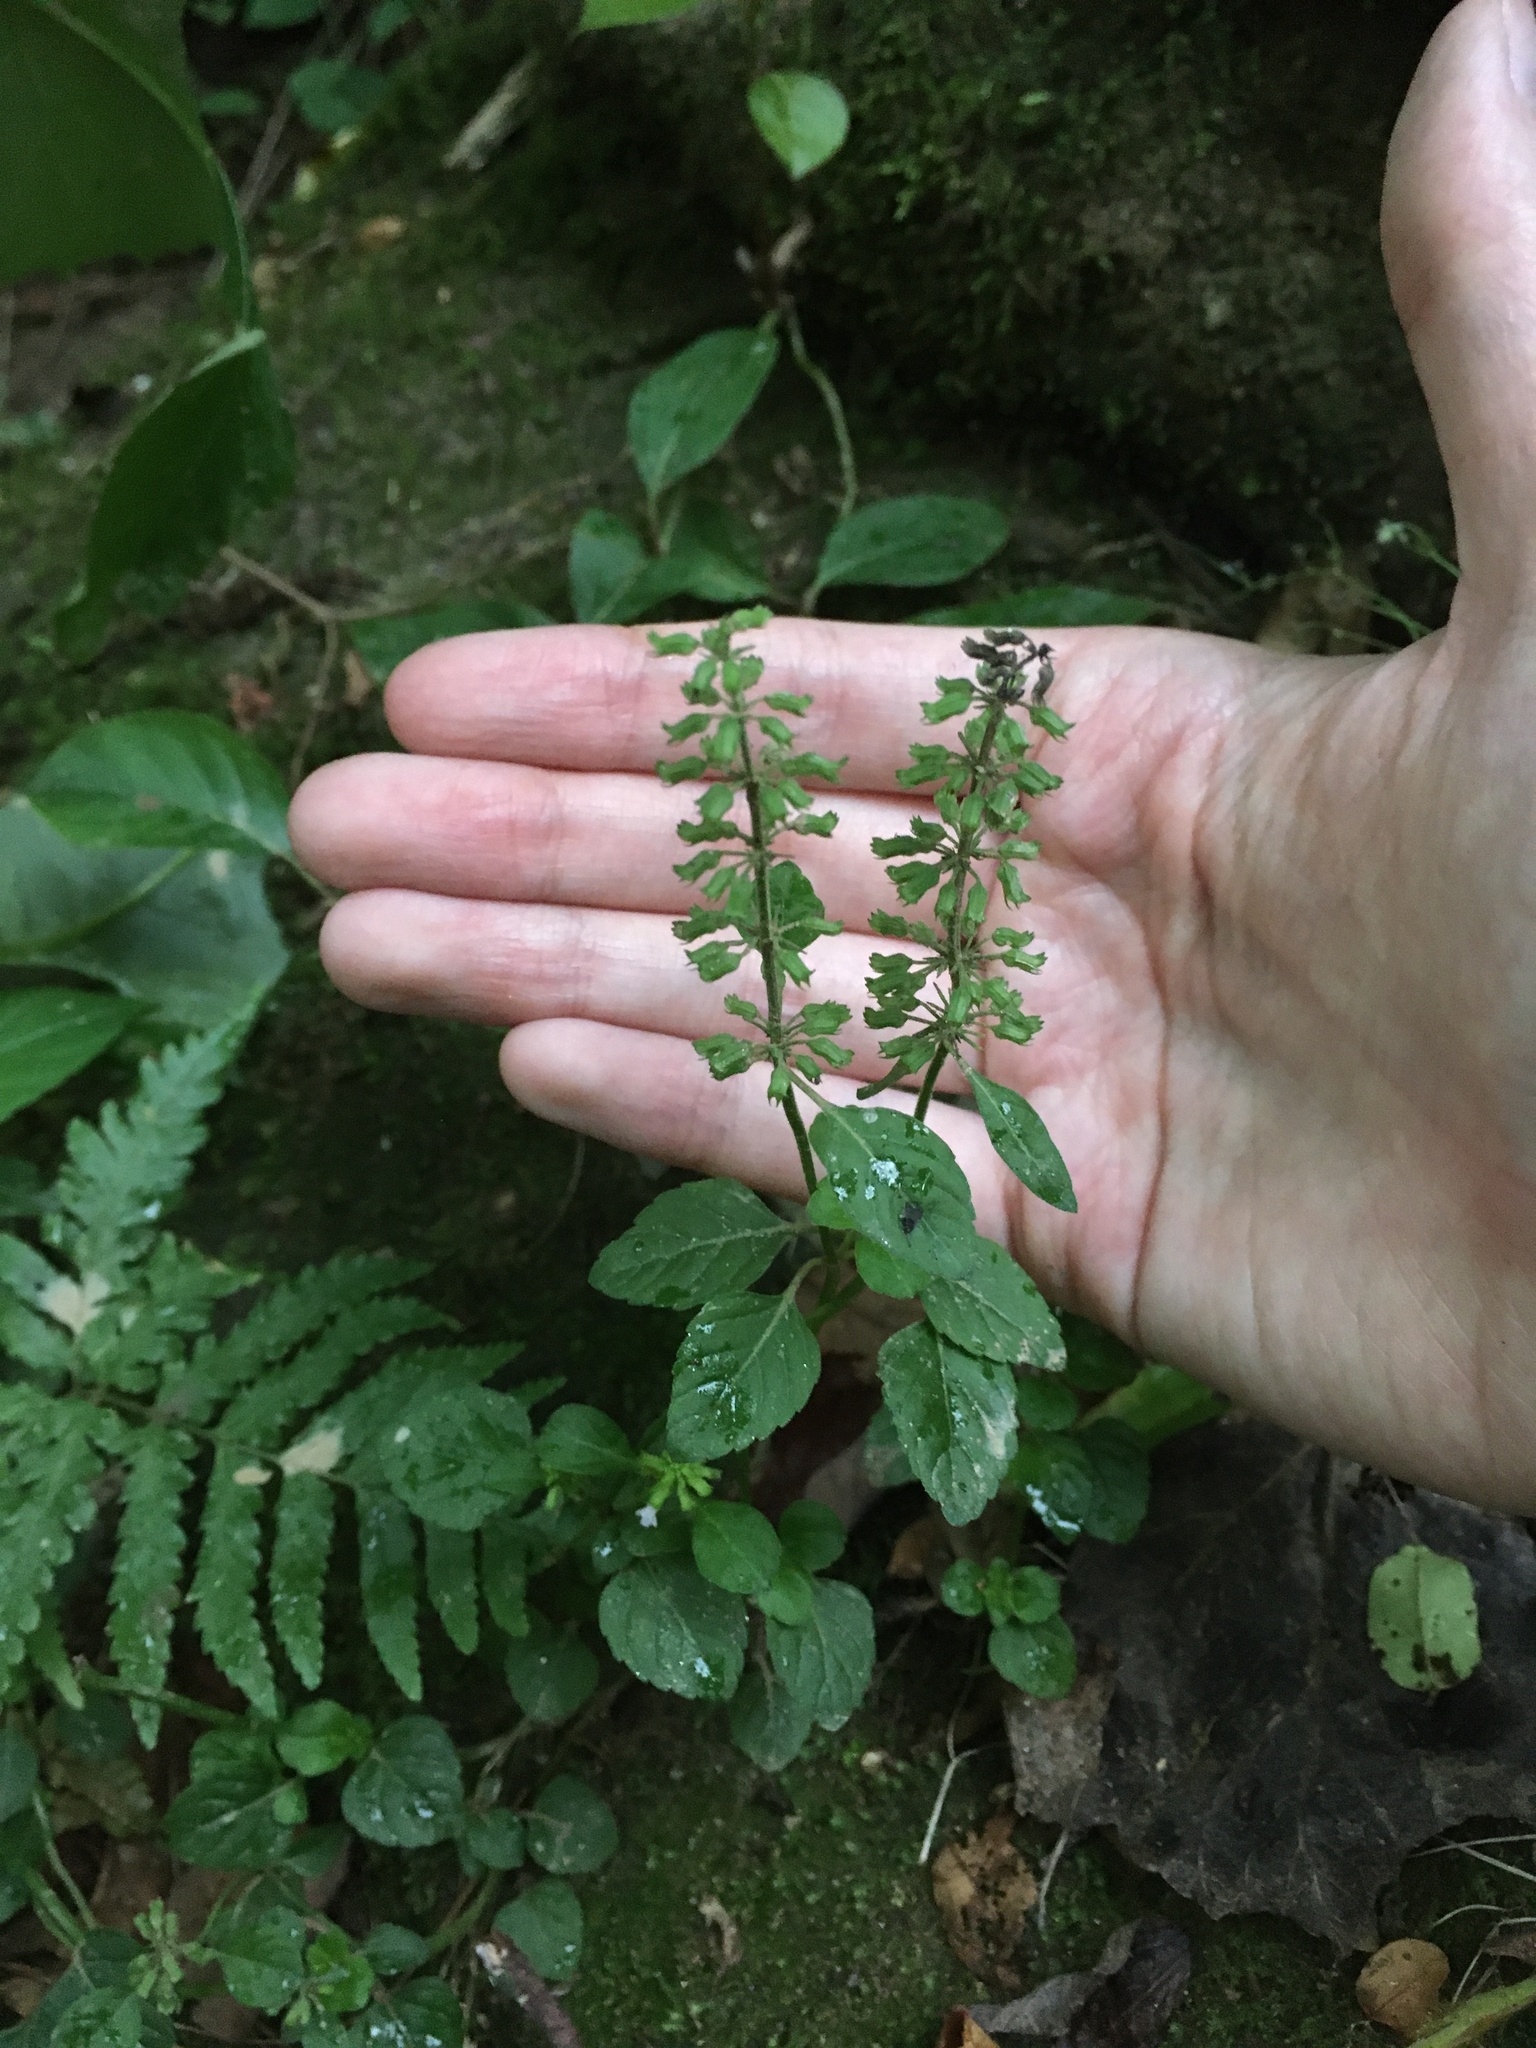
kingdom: Plantae
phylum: Tracheophyta
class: Magnoliopsida
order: Lamiales
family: Lamiaceae
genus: Clinopodium
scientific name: Clinopodium gracile
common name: Slender wild basil
